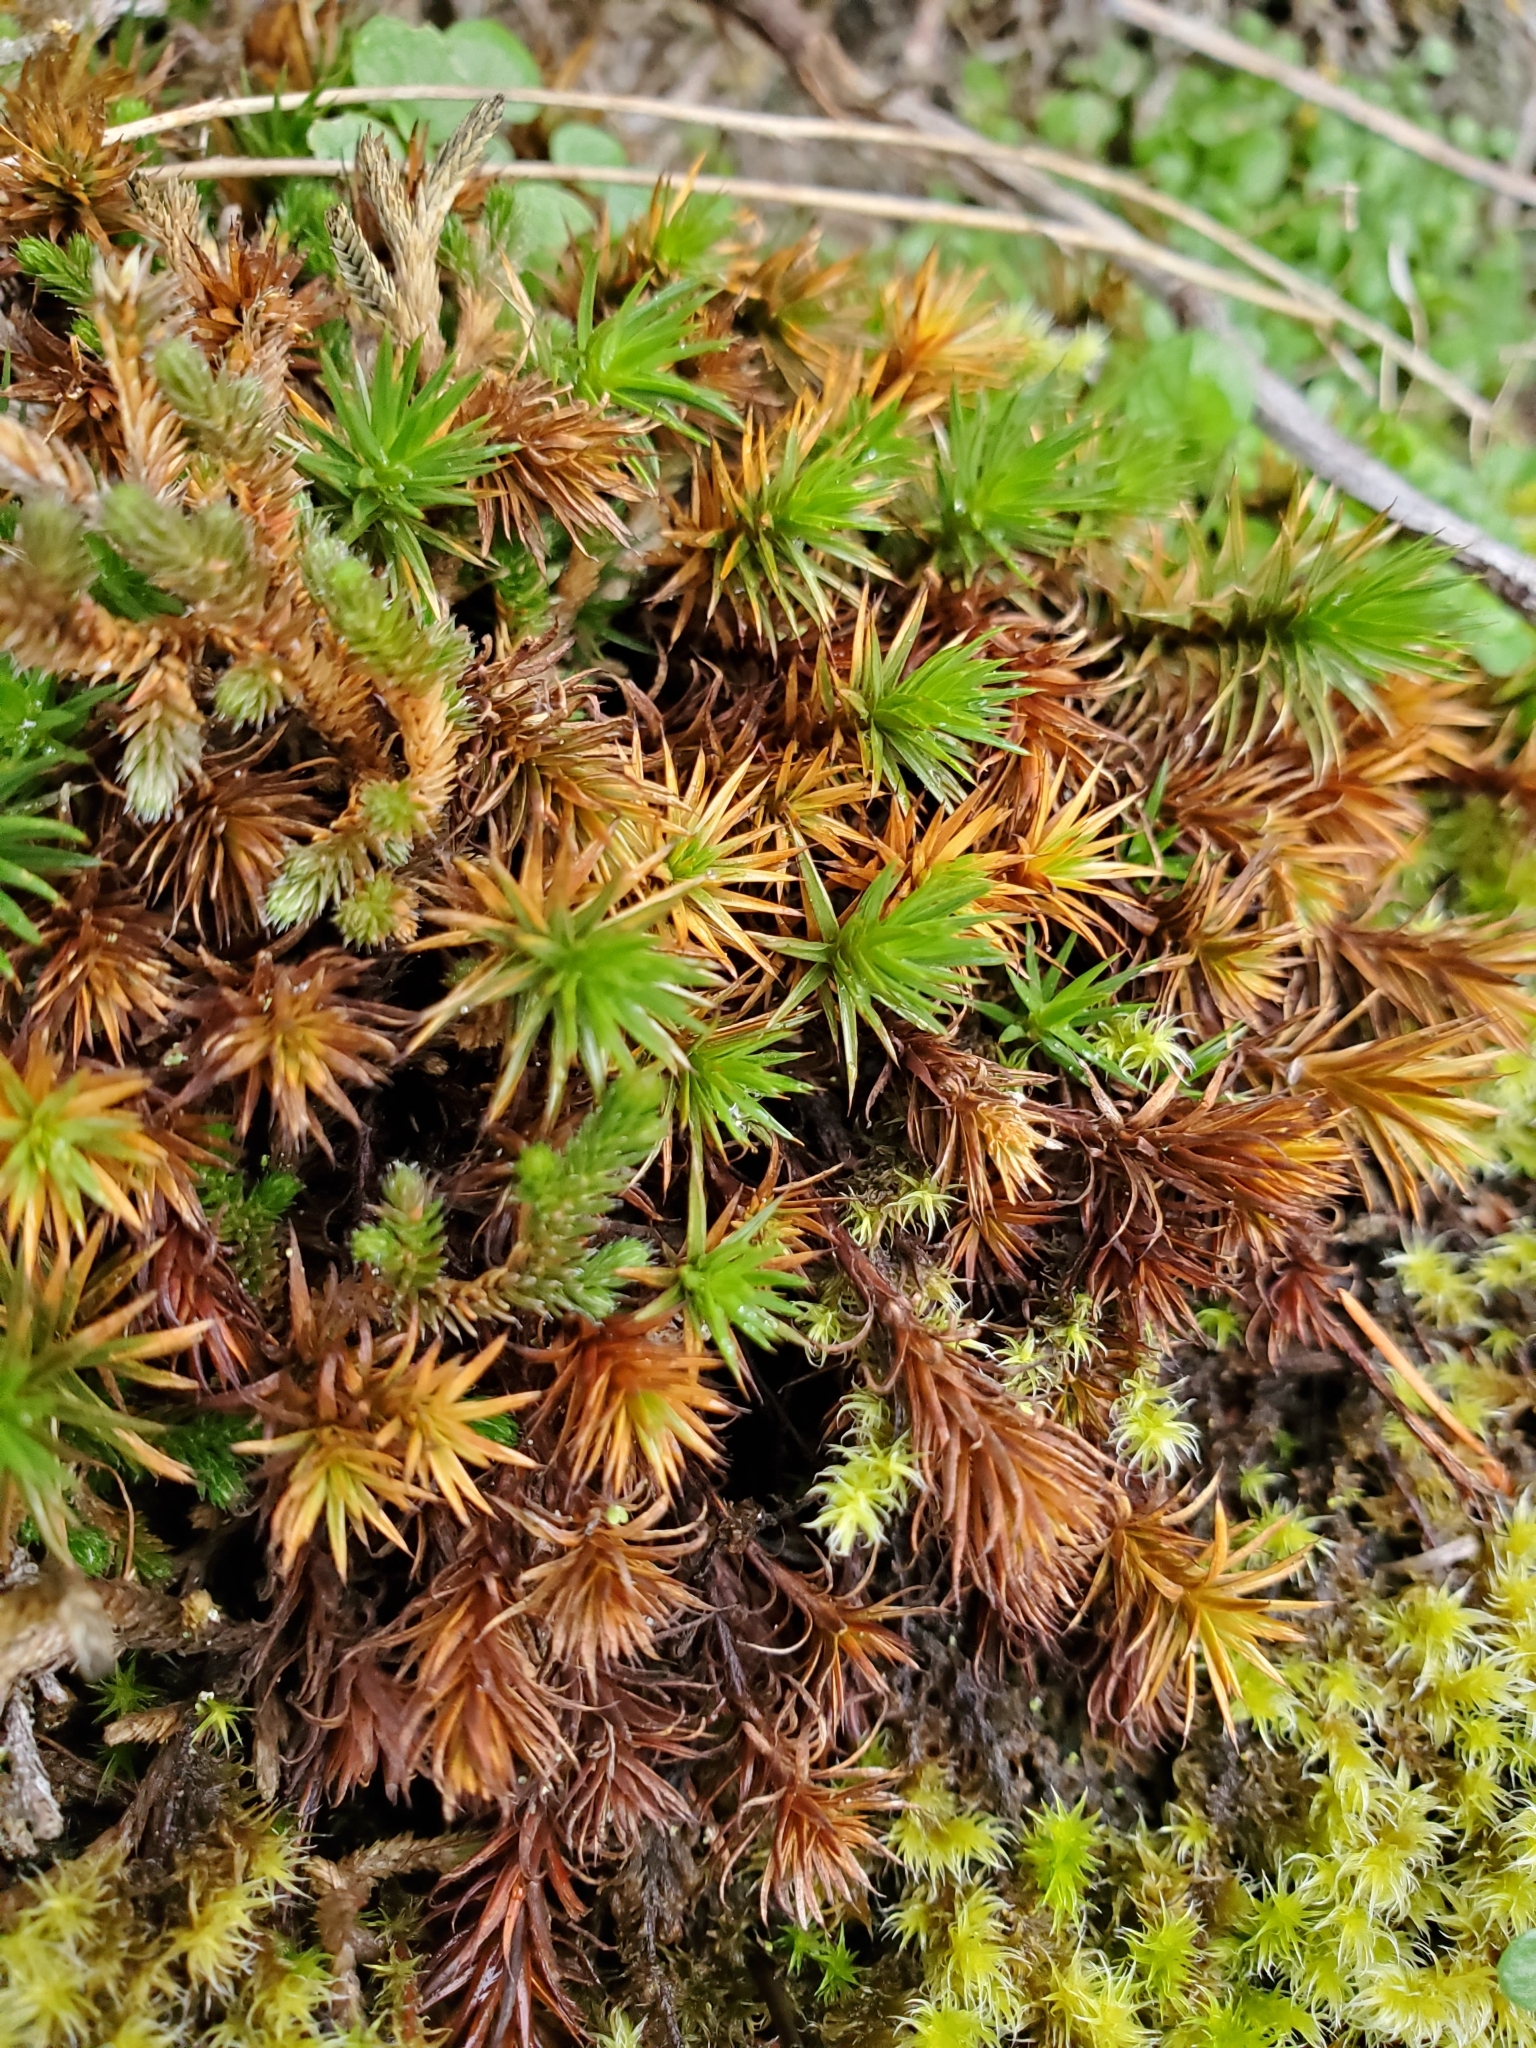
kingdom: Plantae
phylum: Bryophyta
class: Polytrichopsida
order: Polytrichales
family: Polytrichaceae
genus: Polytrichum
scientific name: Polytrichum juniperinum
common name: Juniper haircap moss
